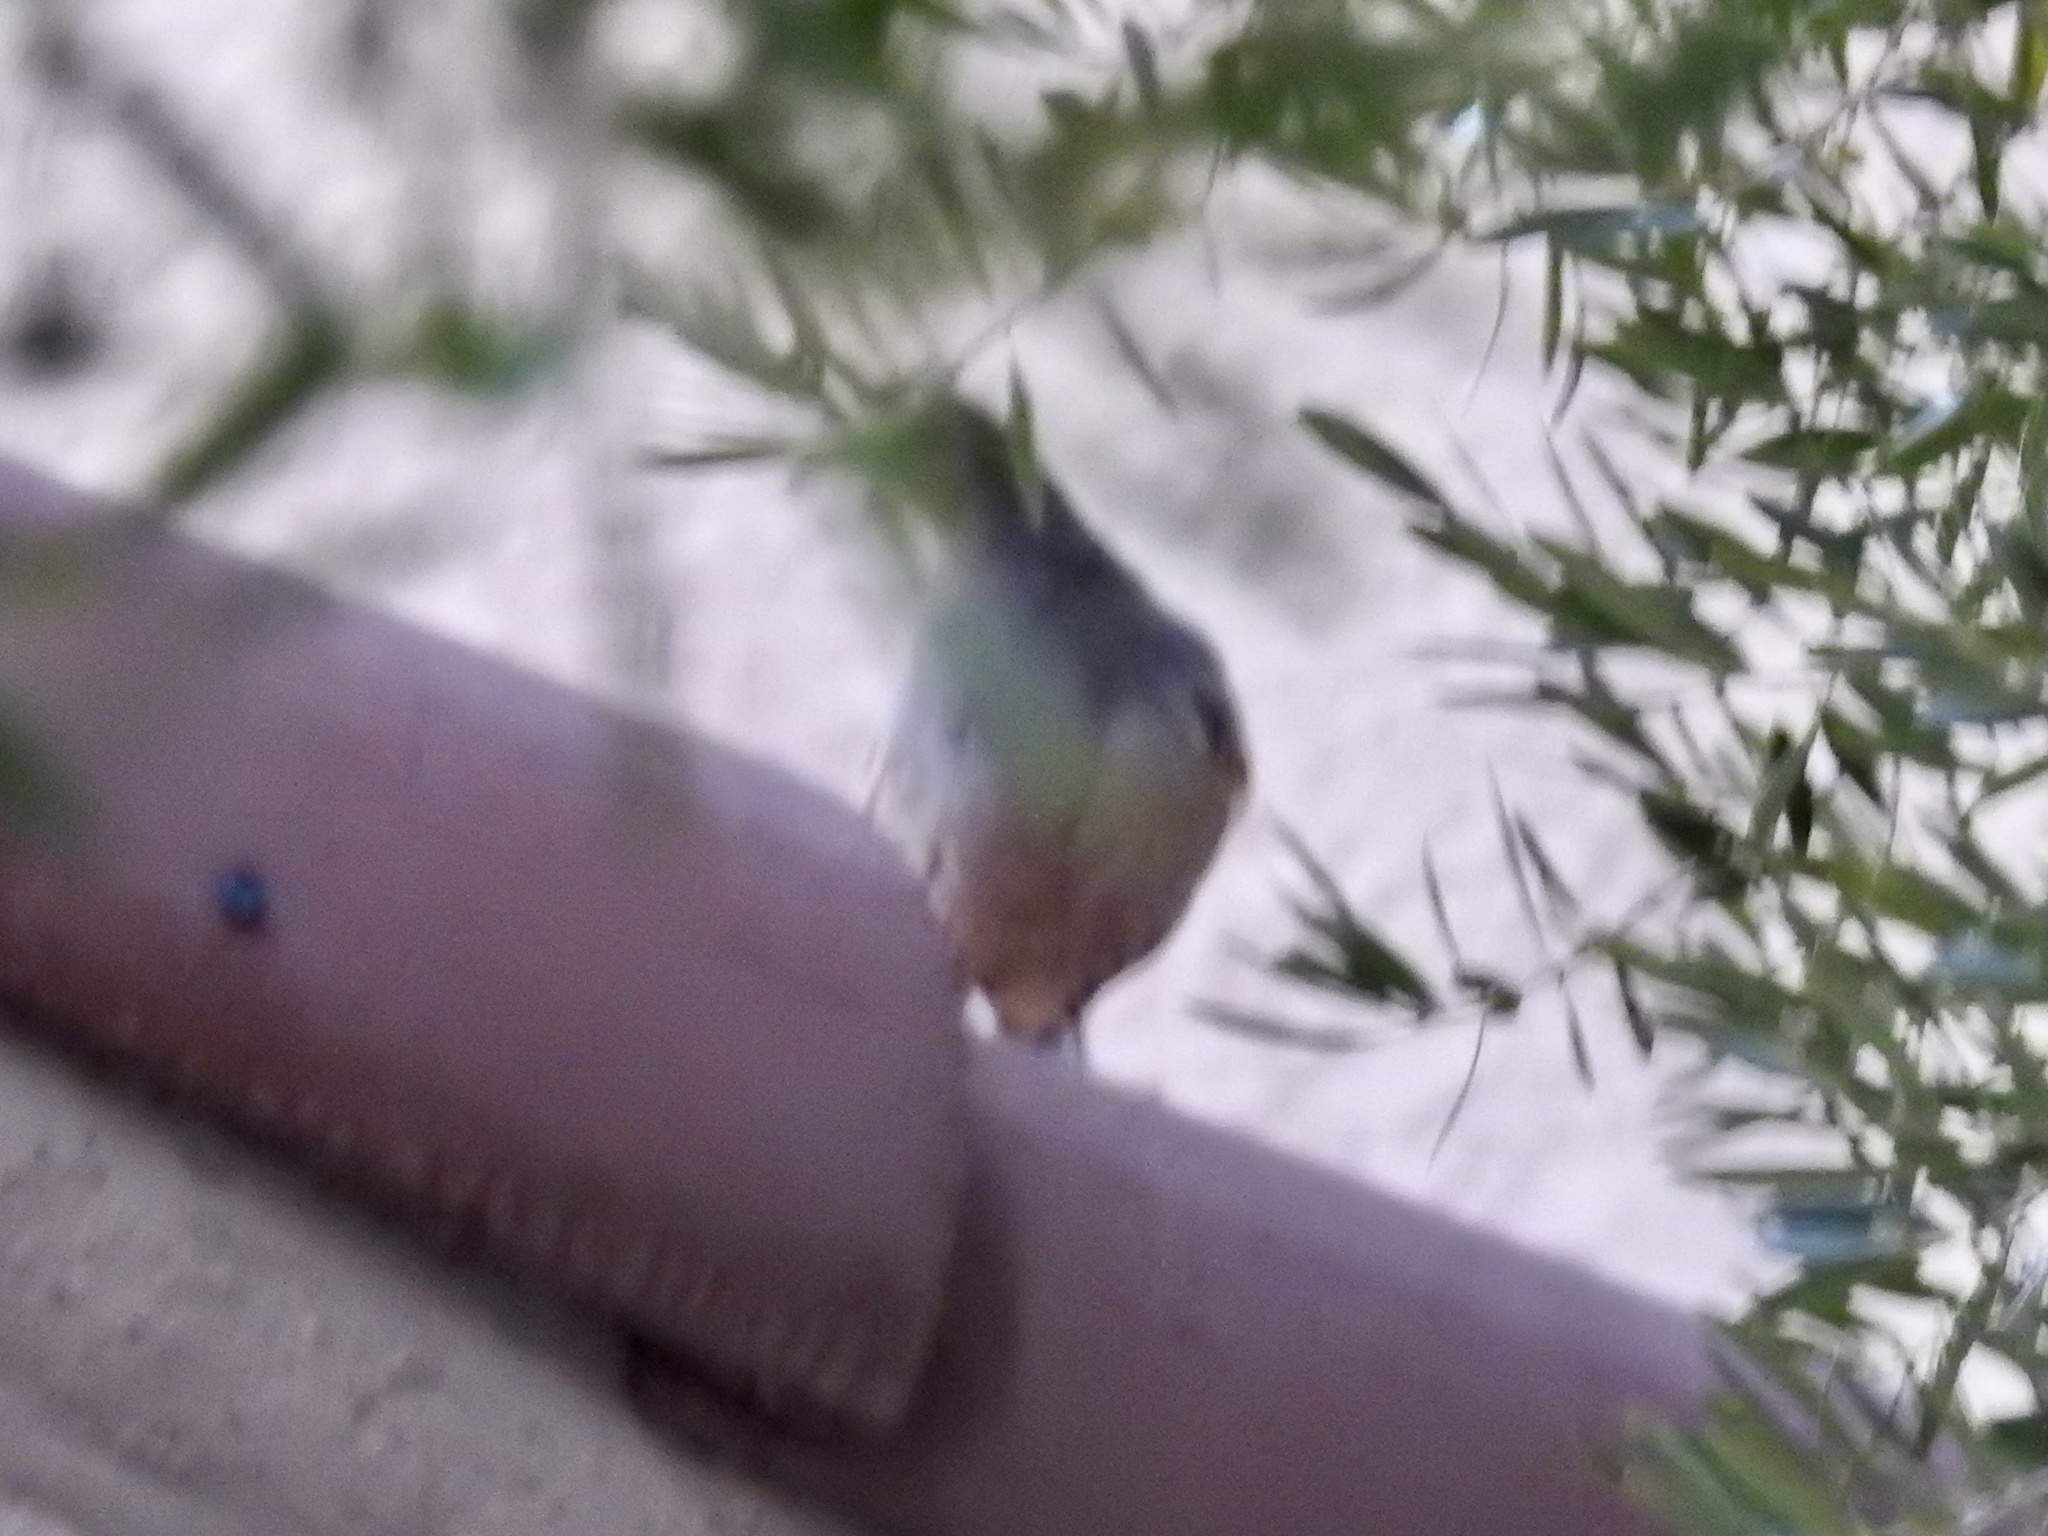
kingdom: Animalia
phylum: Chordata
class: Aves
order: Galliformes
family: Odontophoridae
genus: Callipepla
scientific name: Callipepla gambelii
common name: Gambel's quail
